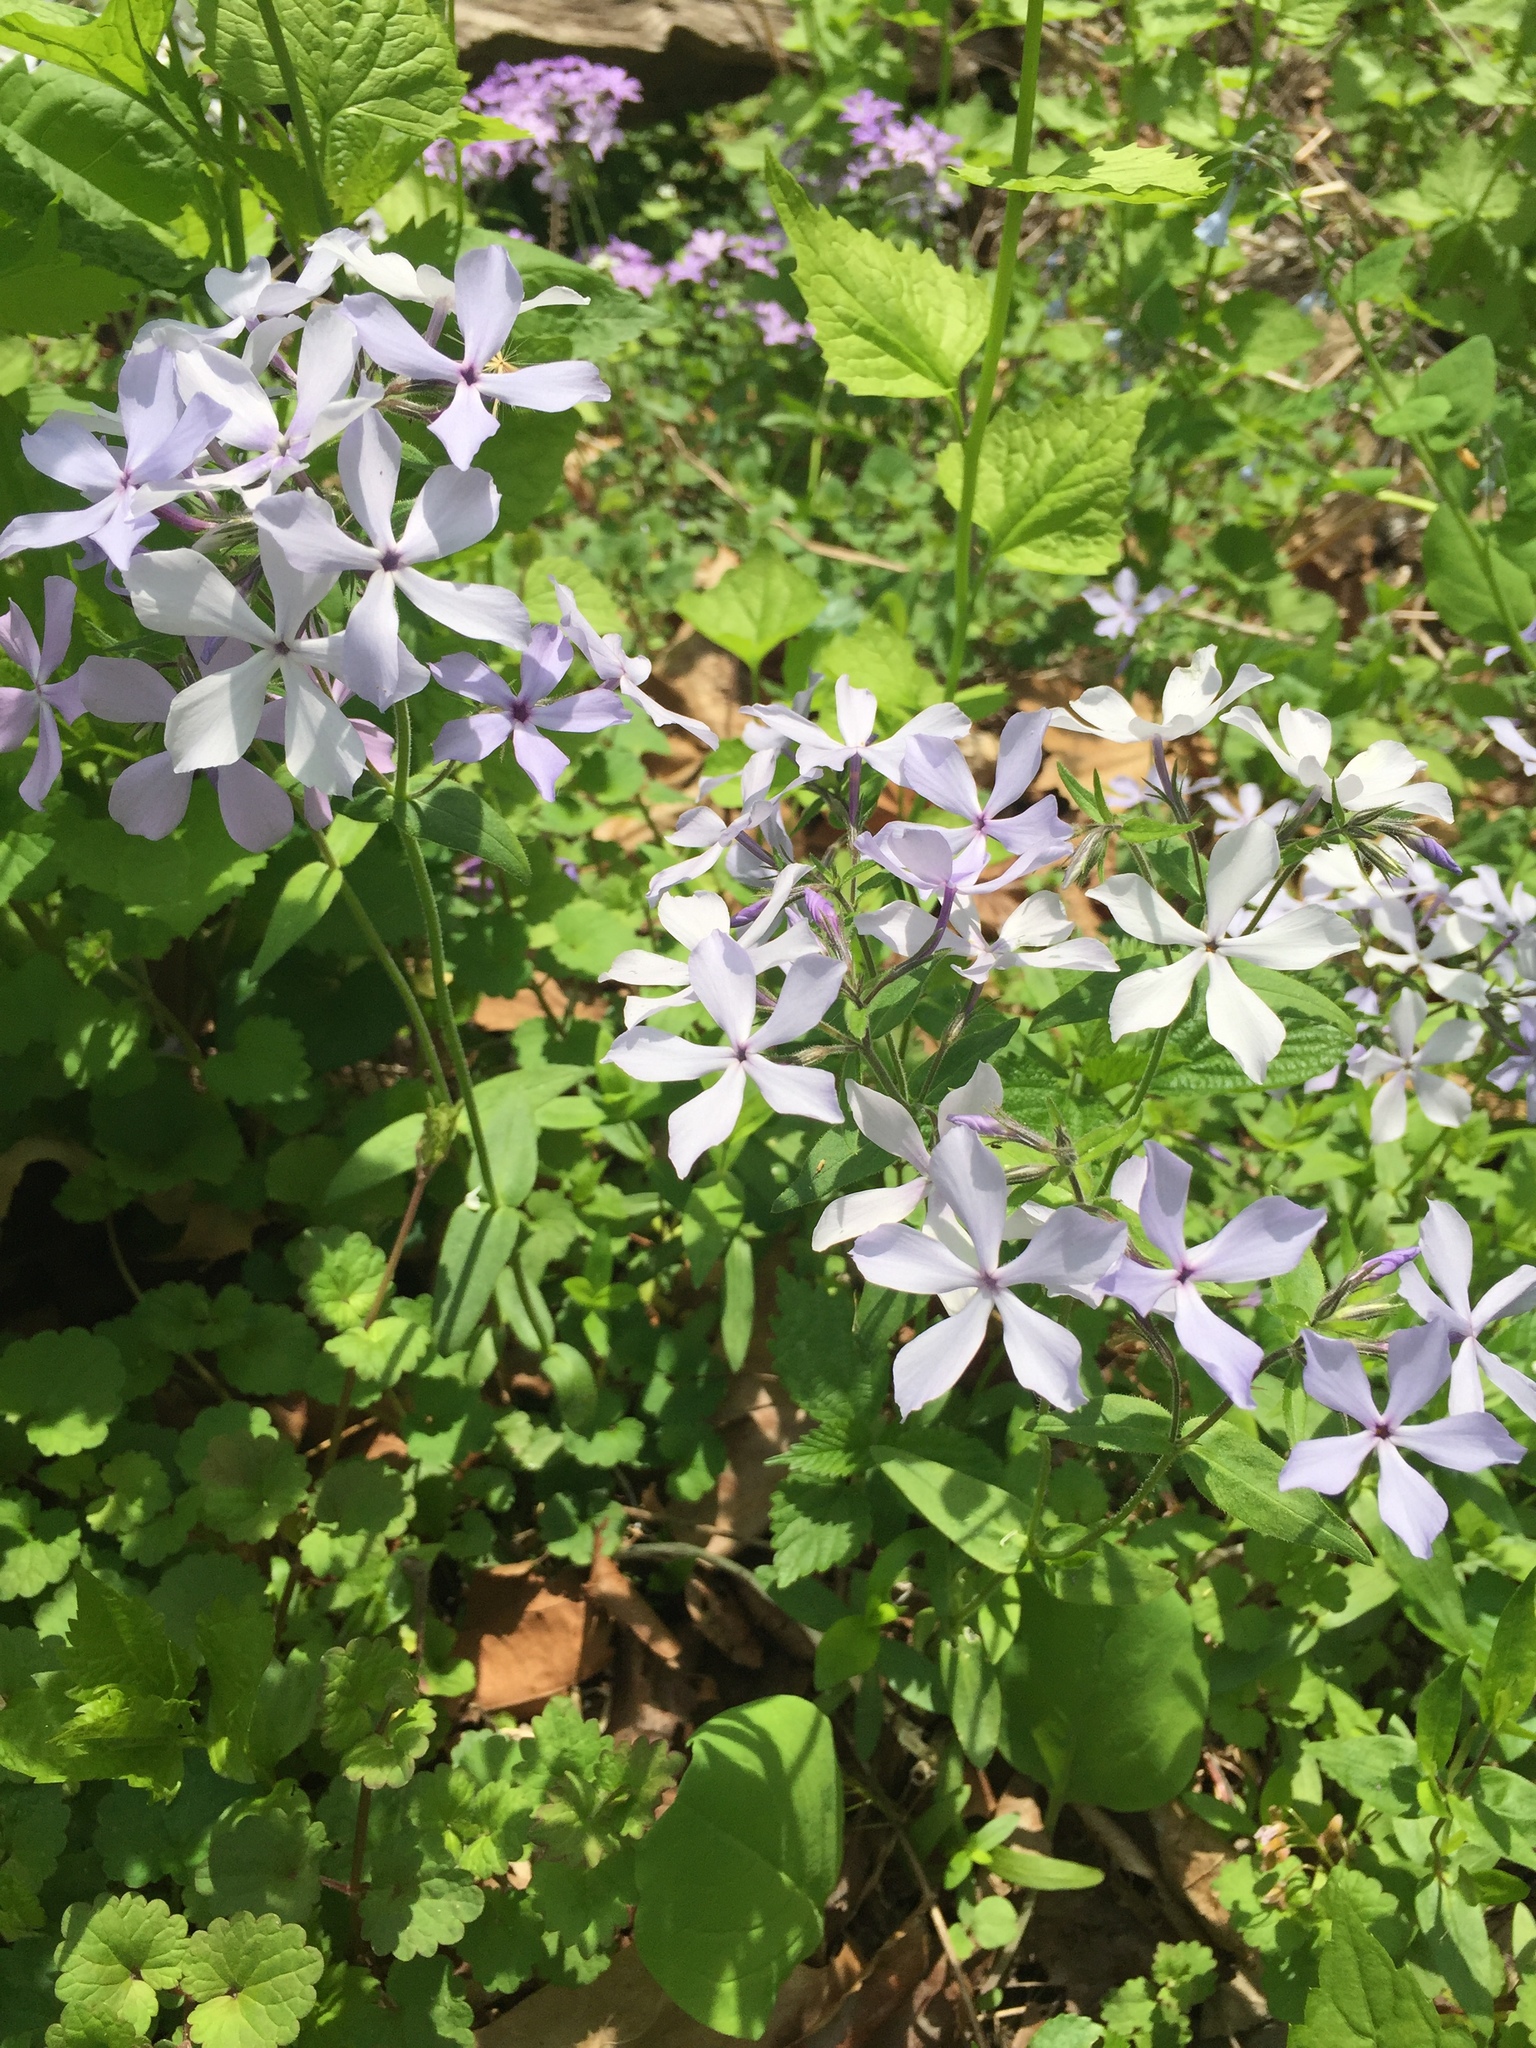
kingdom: Plantae
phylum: Tracheophyta
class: Magnoliopsida
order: Ericales
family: Polemoniaceae
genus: Phlox
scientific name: Phlox divaricata
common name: Blue phlox
